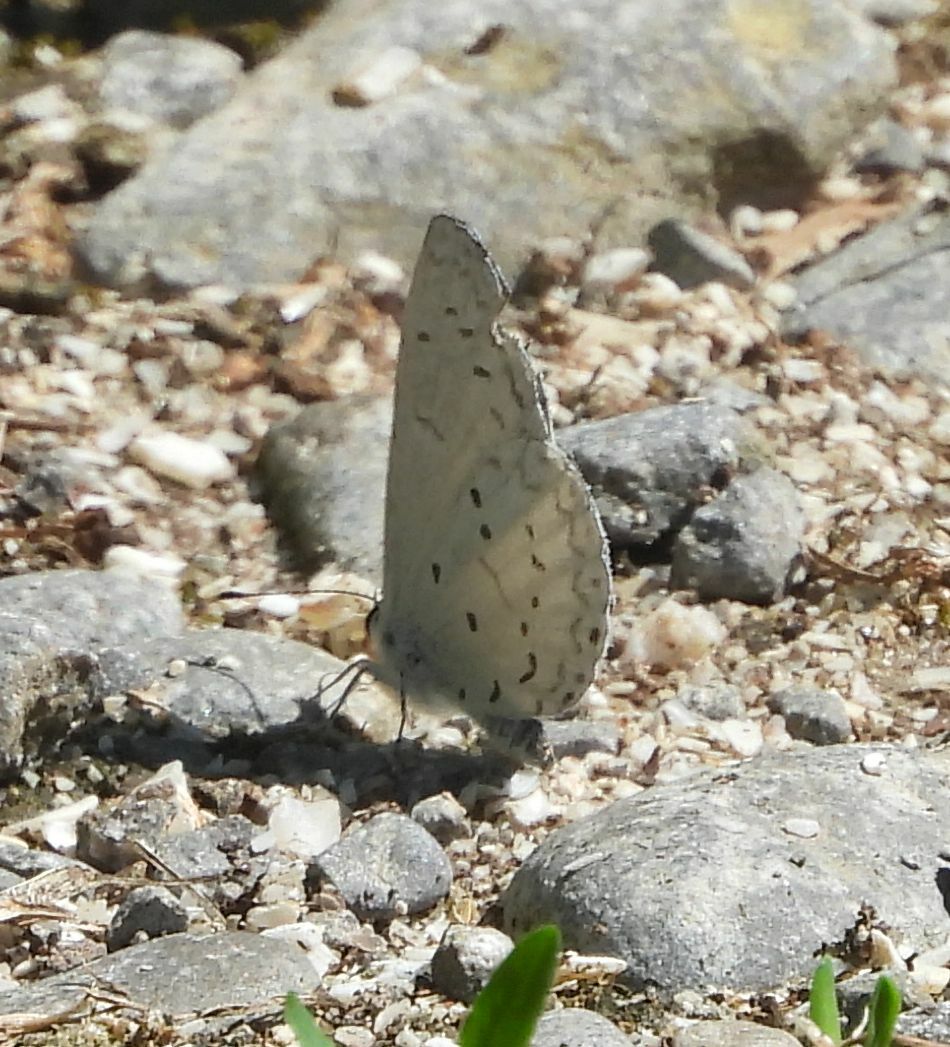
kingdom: Animalia
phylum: Arthropoda
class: Insecta
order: Lepidoptera
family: Lycaenidae
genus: Cyaniris
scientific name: Cyaniris neglecta
